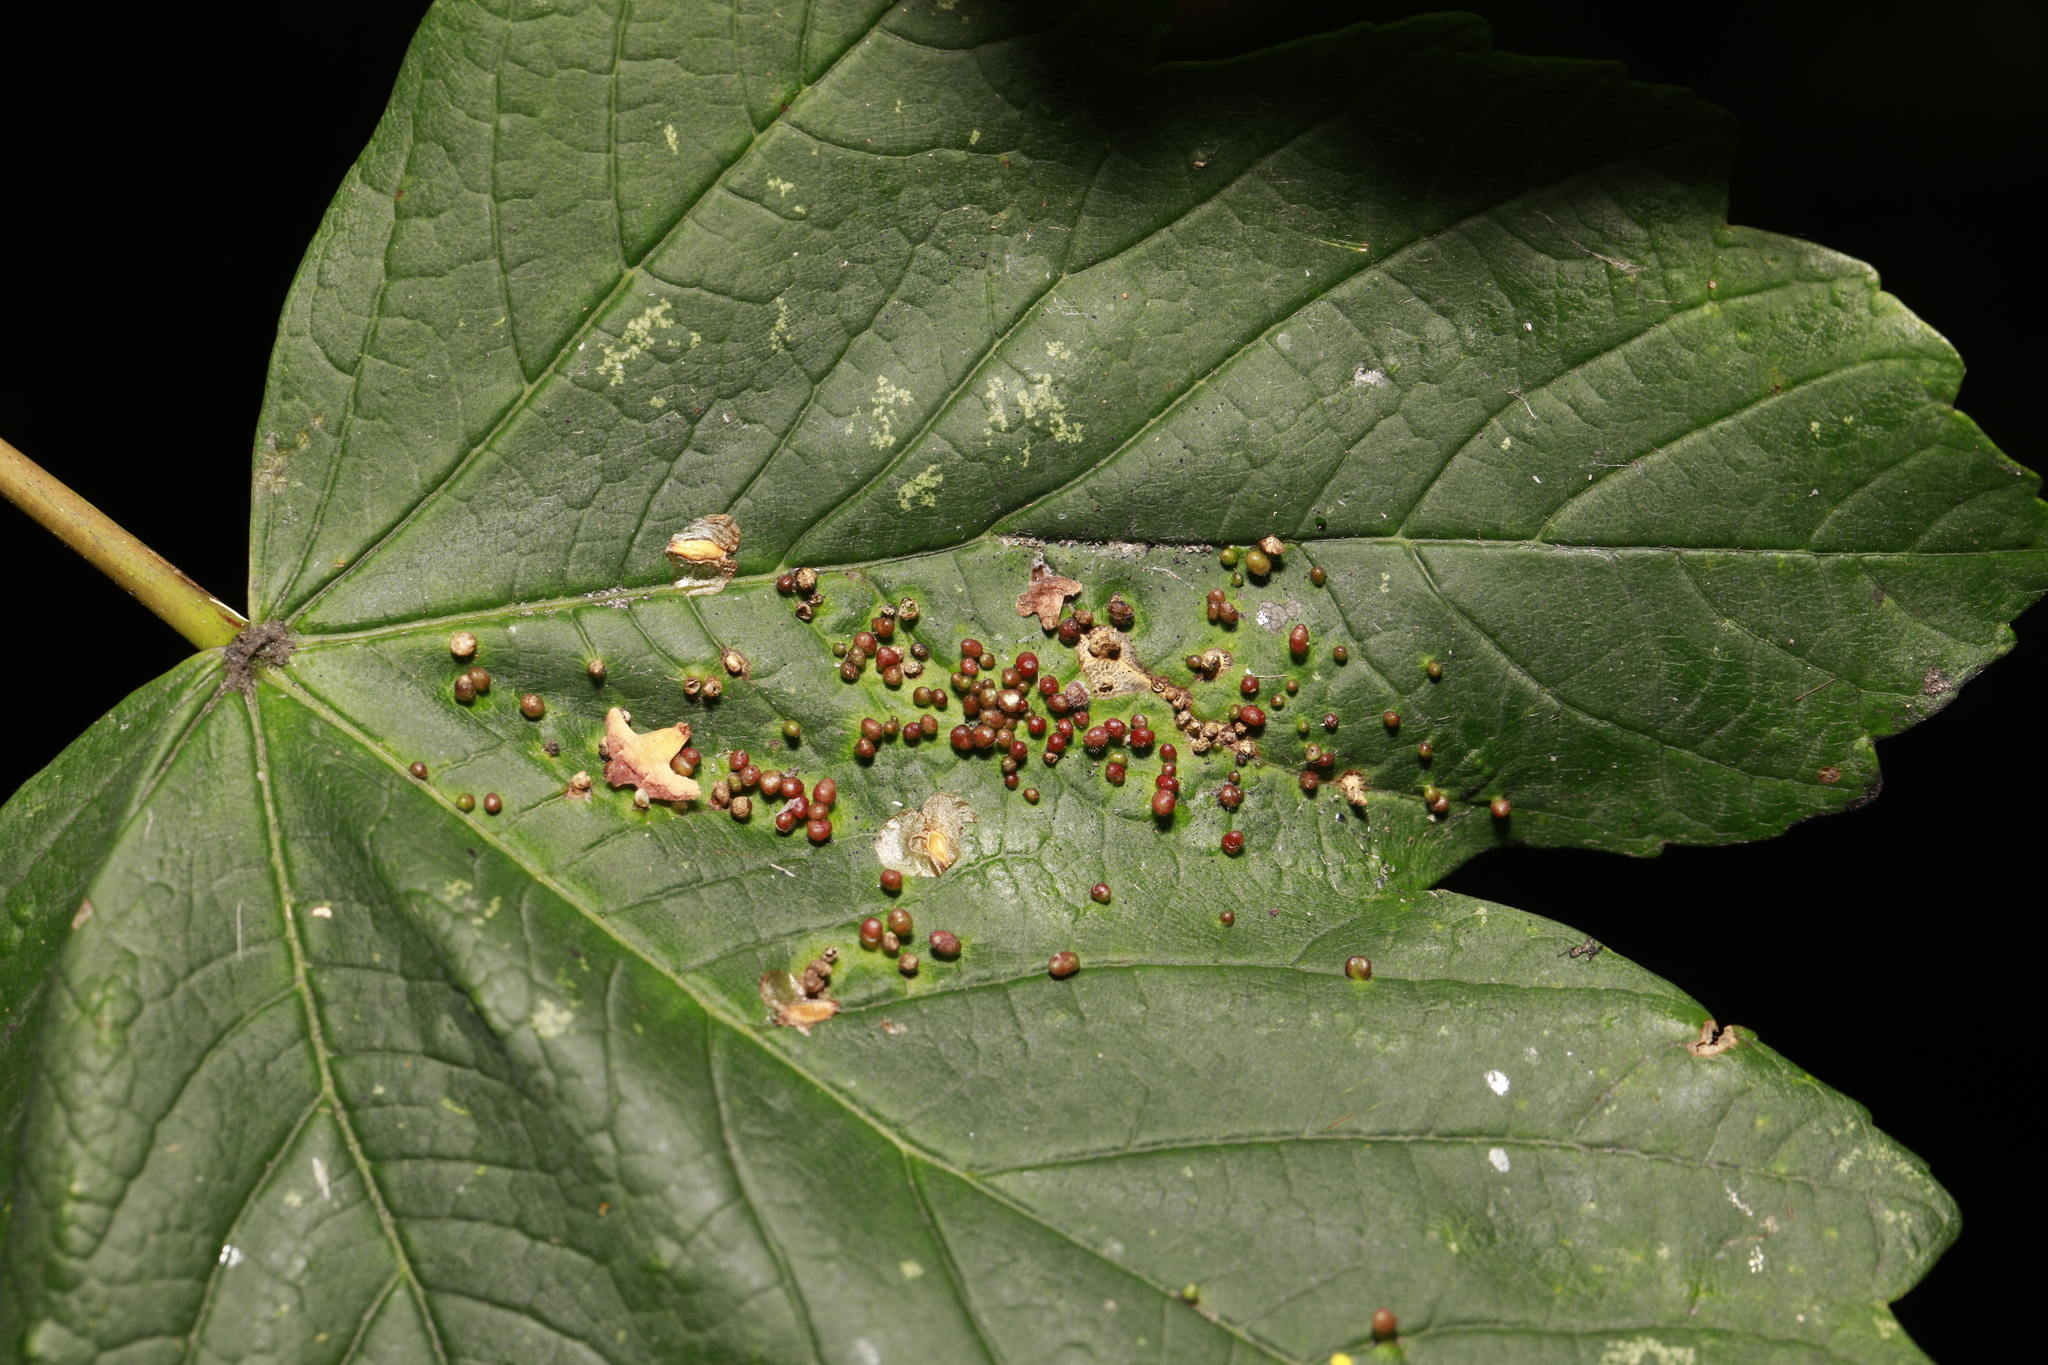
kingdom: Animalia
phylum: Arthropoda
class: Arachnida
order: Trombidiformes
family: Eriophyidae
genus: Aceria
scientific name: Aceria cephaloneus
